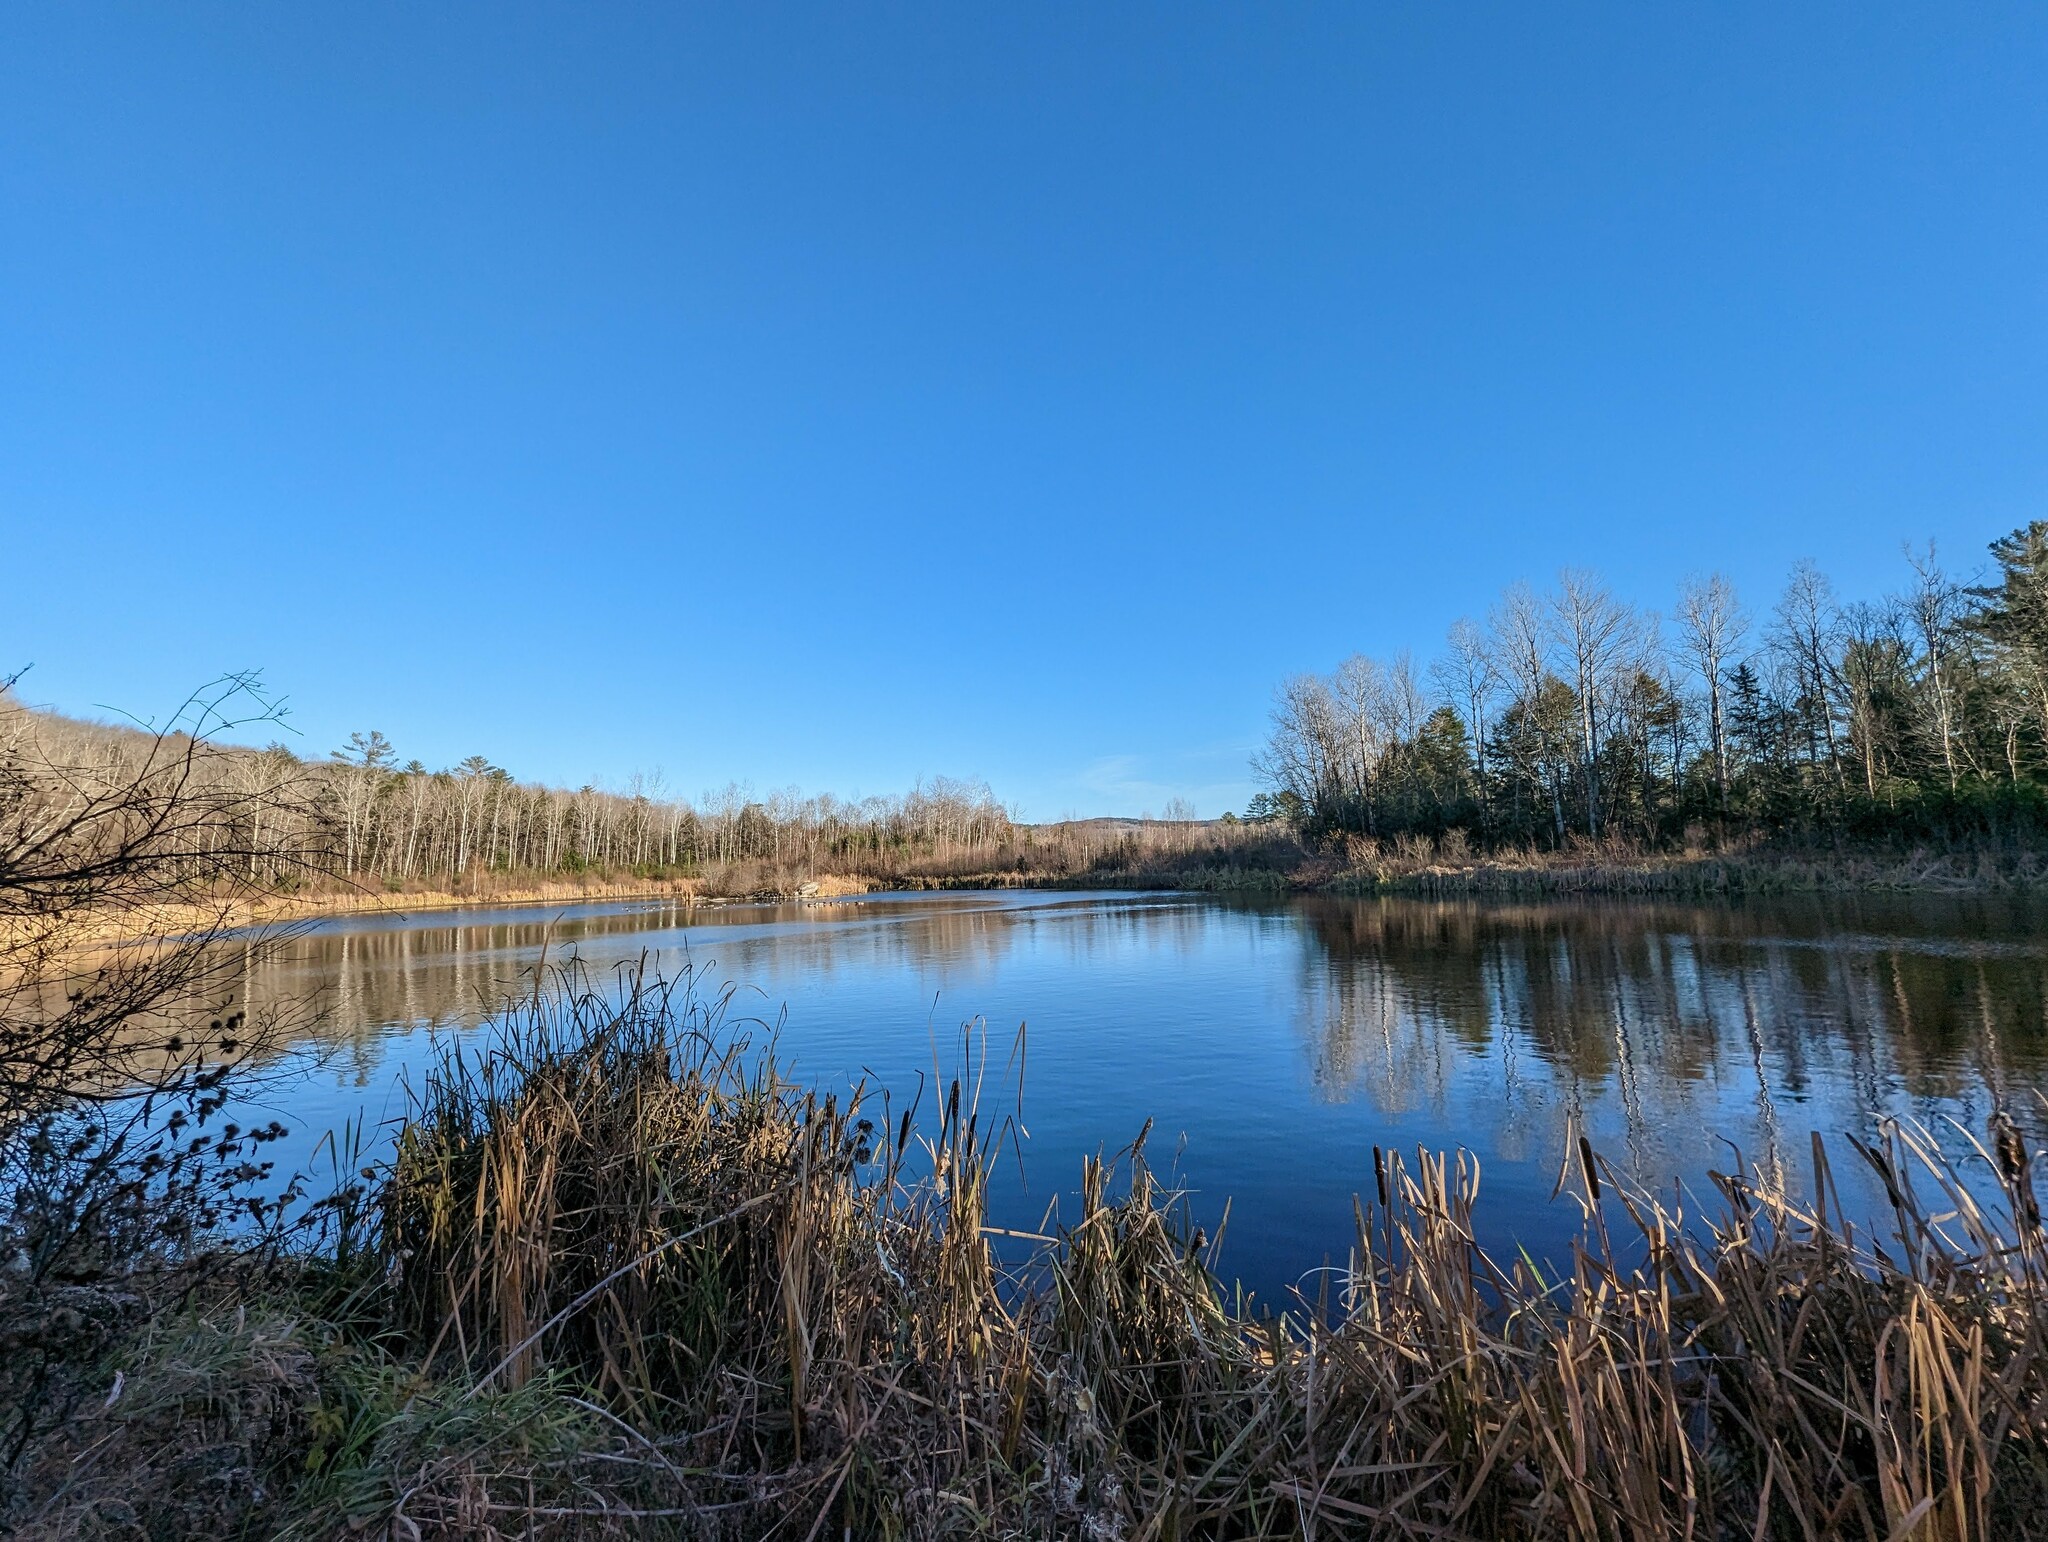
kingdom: Plantae
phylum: Tracheophyta
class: Liliopsida
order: Poales
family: Typhaceae
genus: Typha
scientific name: Typha latifolia
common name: Broadleaf cattail
